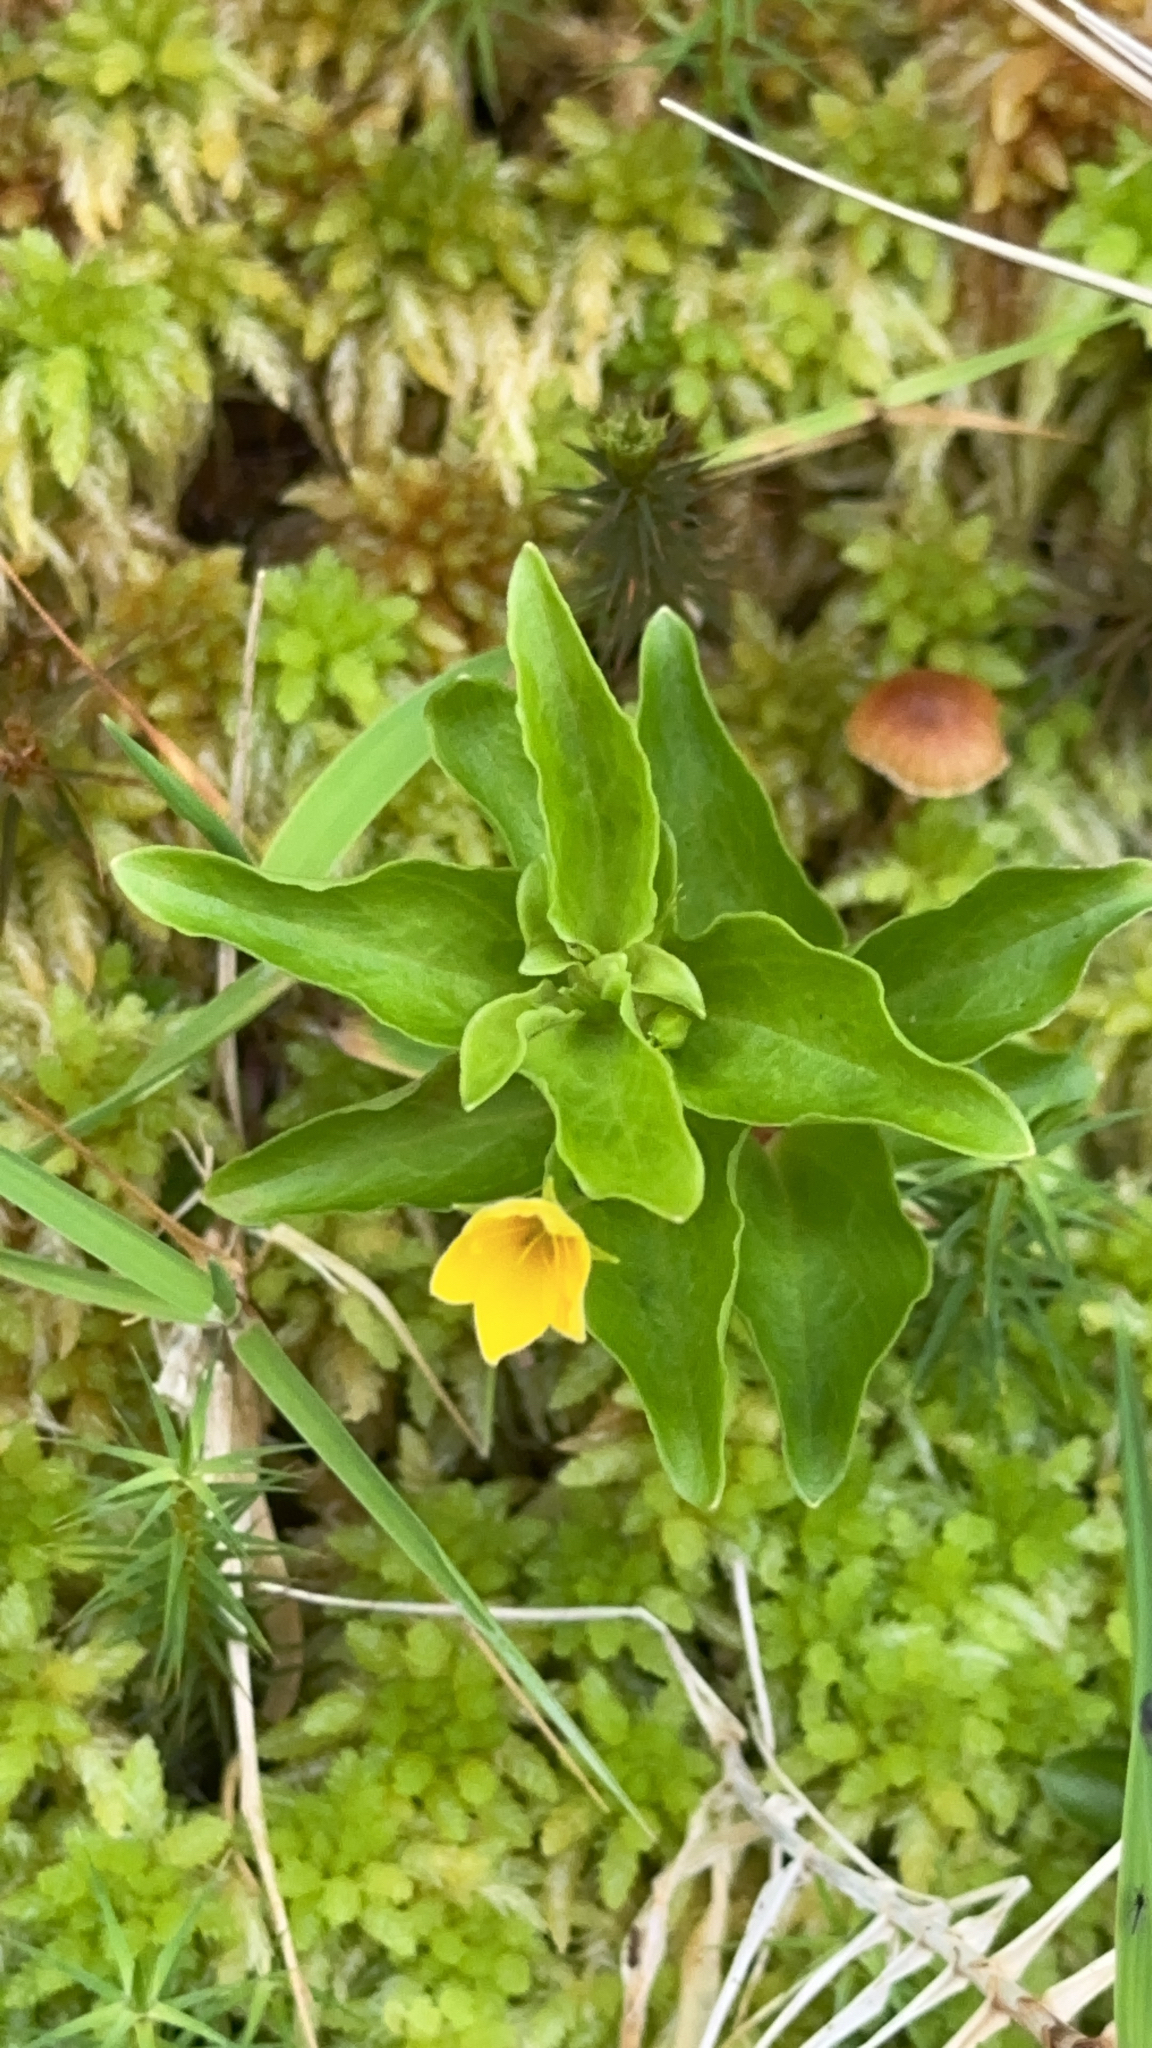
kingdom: Plantae
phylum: Tracheophyta
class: Magnoliopsida
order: Ericales
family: Primulaceae
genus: Lysimachia
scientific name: Lysimachia azorica
